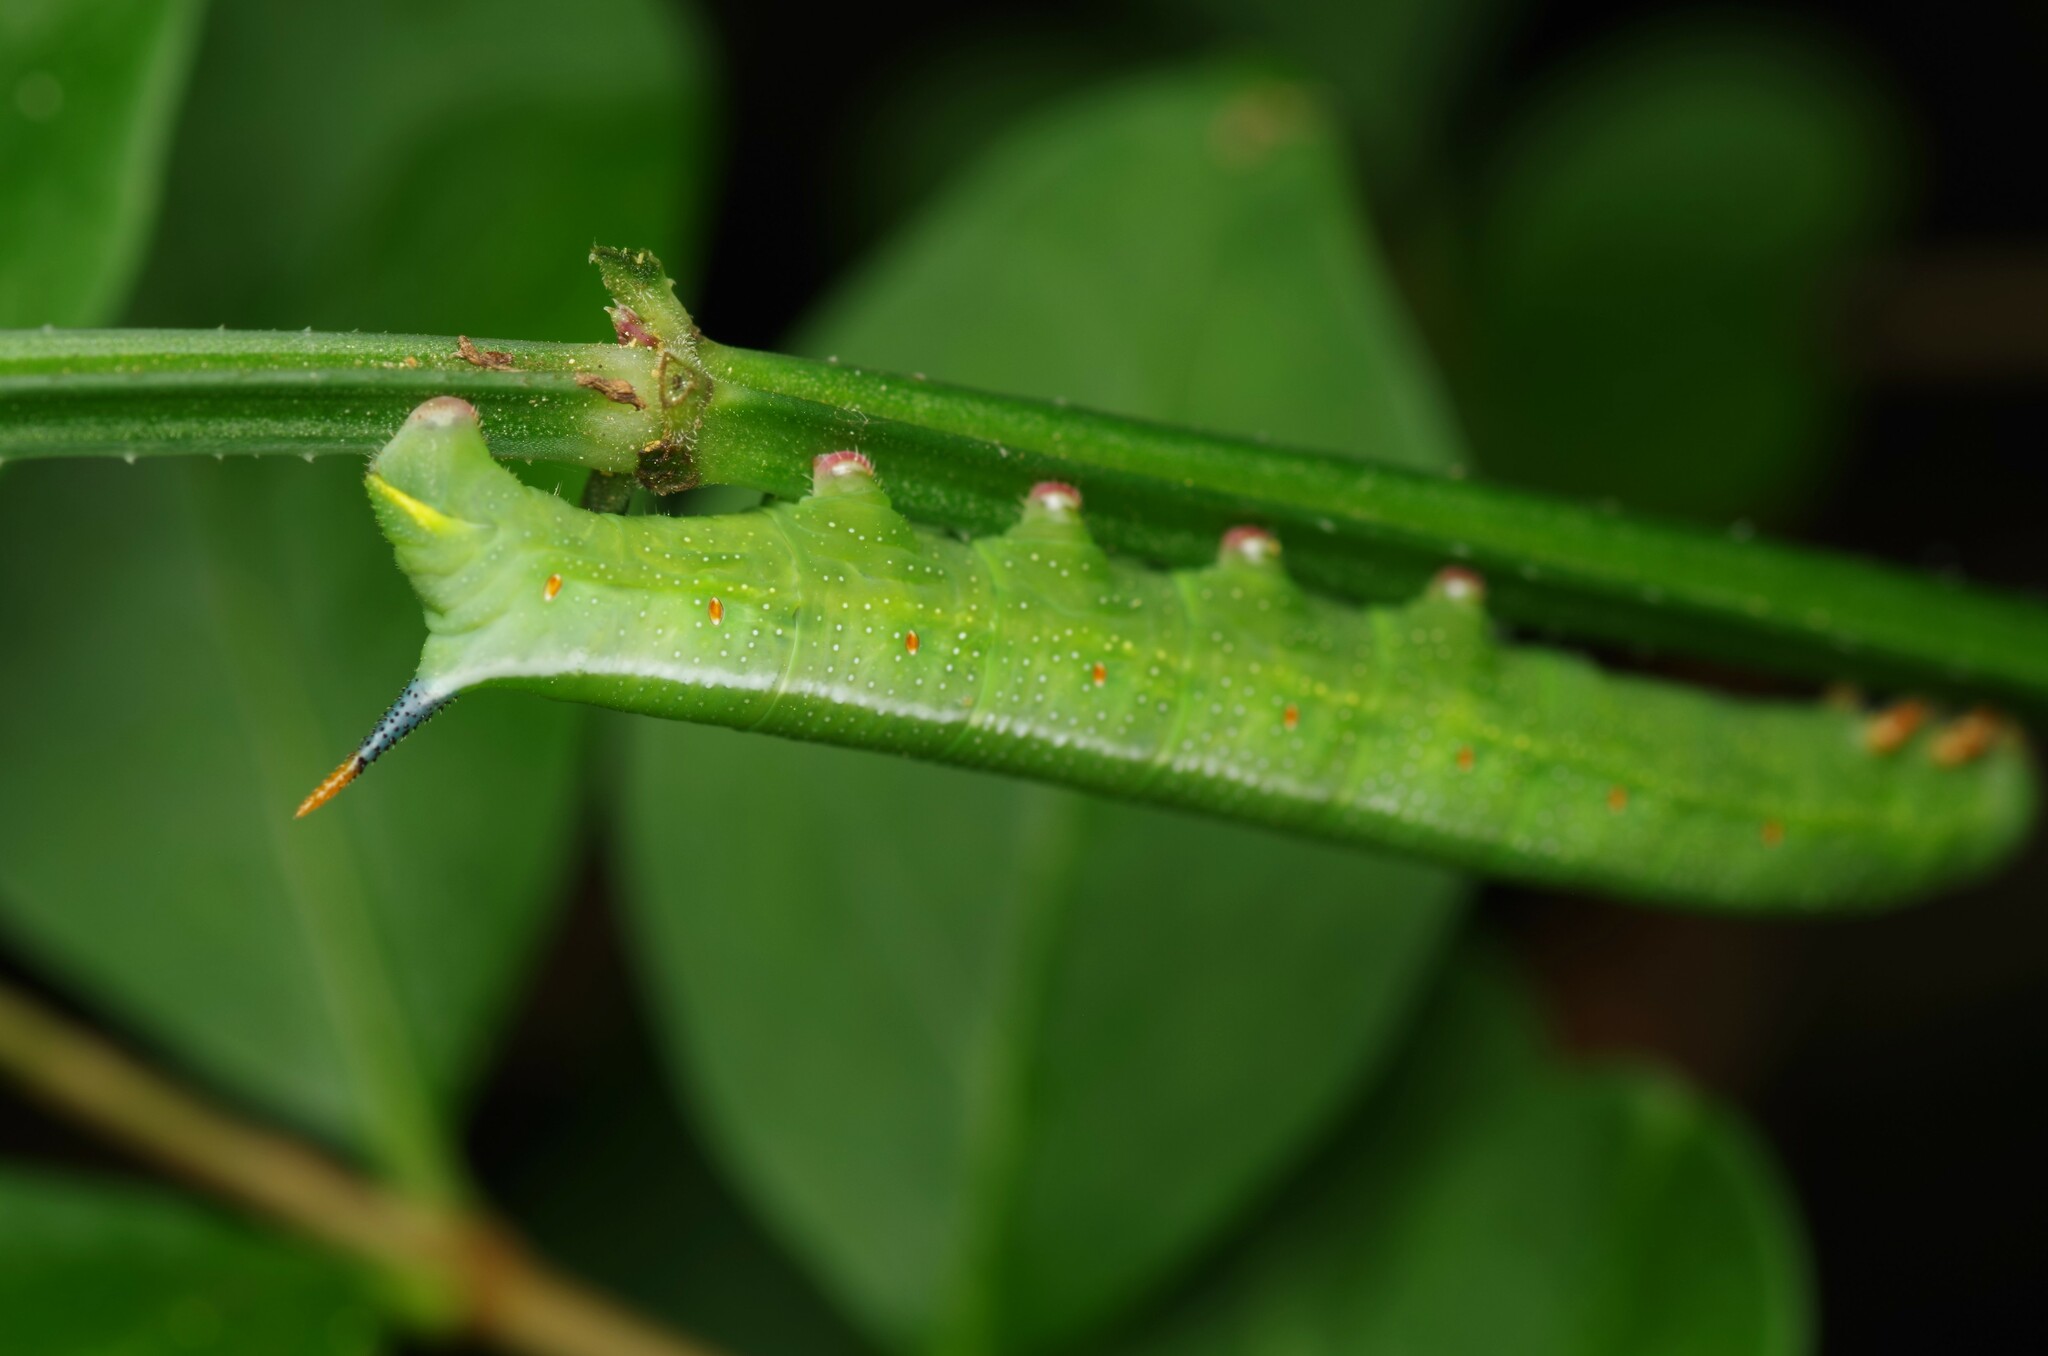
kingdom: Animalia
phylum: Arthropoda
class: Insecta
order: Lepidoptera
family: Sphingidae
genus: Macroglossum
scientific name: Macroglossum stellatarum
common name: Humming-bird hawk-moth
